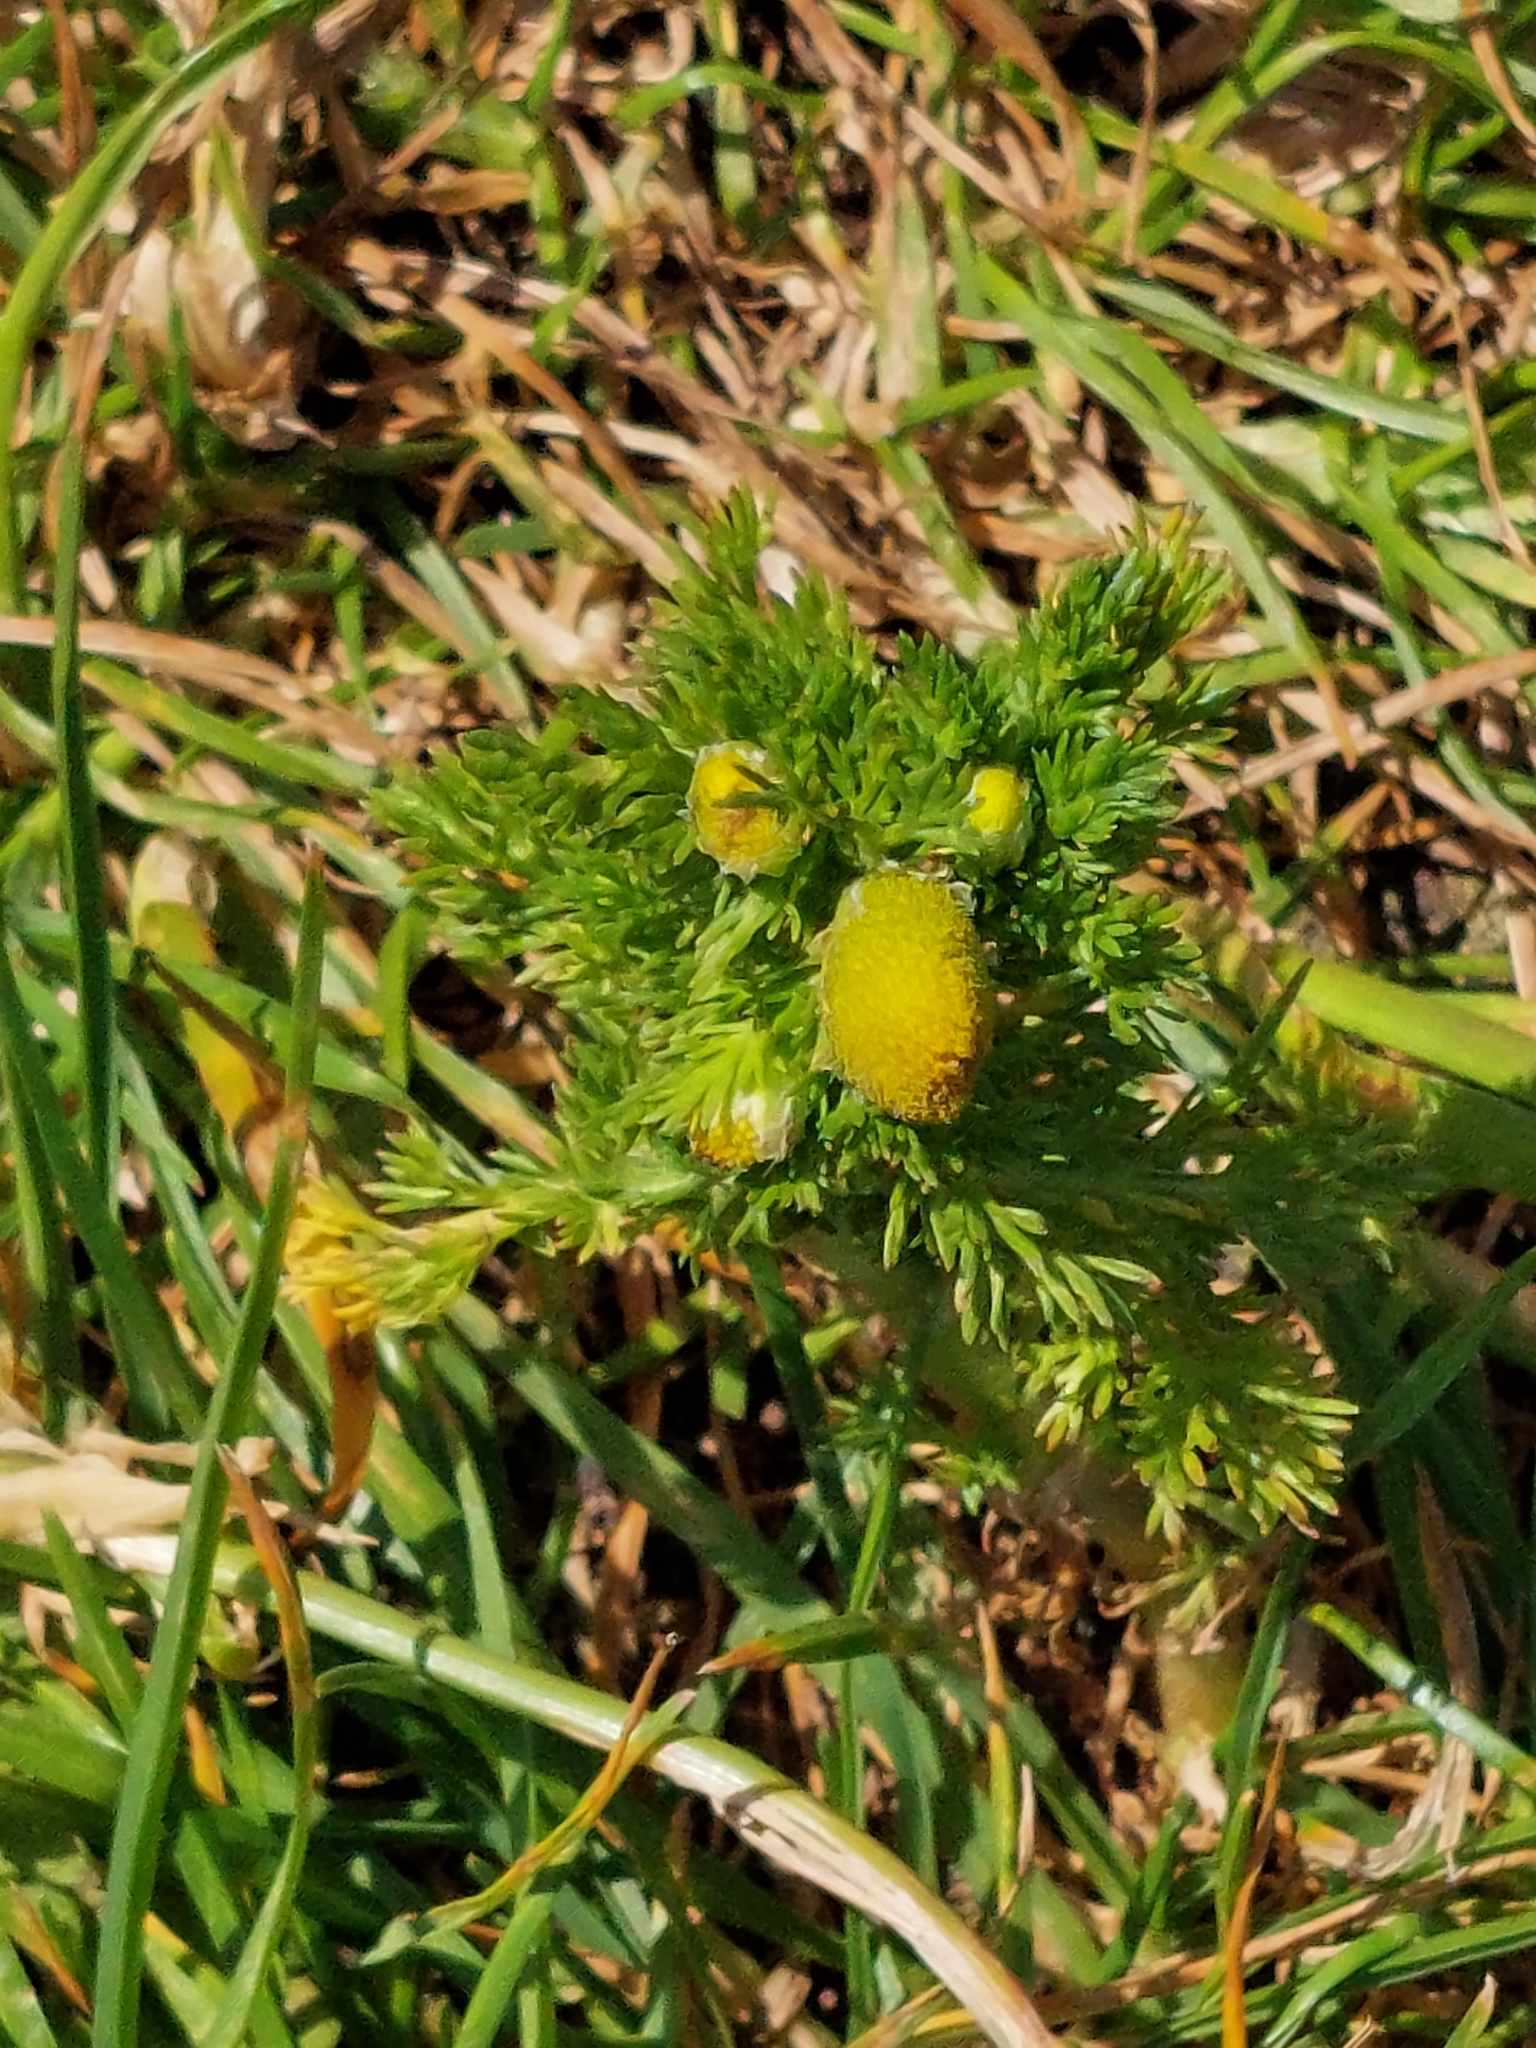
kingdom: Plantae
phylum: Tracheophyta
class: Magnoliopsida
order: Asterales
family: Asteraceae
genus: Matricaria
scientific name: Matricaria discoidea
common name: Disc mayweed
